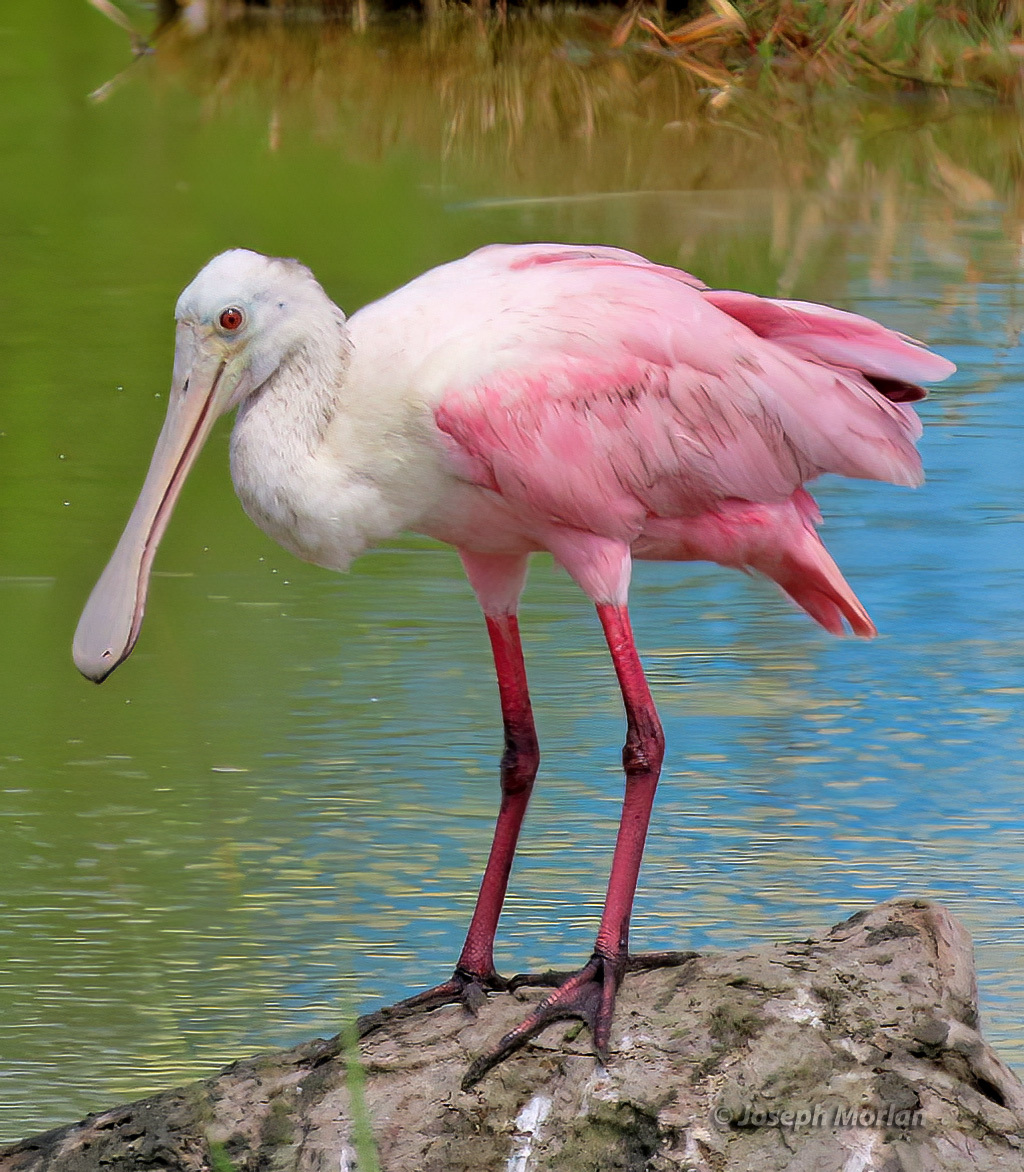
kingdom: Animalia
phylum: Chordata
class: Aves
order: Pelecaniformes
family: Threskiornithidae
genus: Platalea
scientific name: Platalea ajaja
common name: Roseate spoonbill
